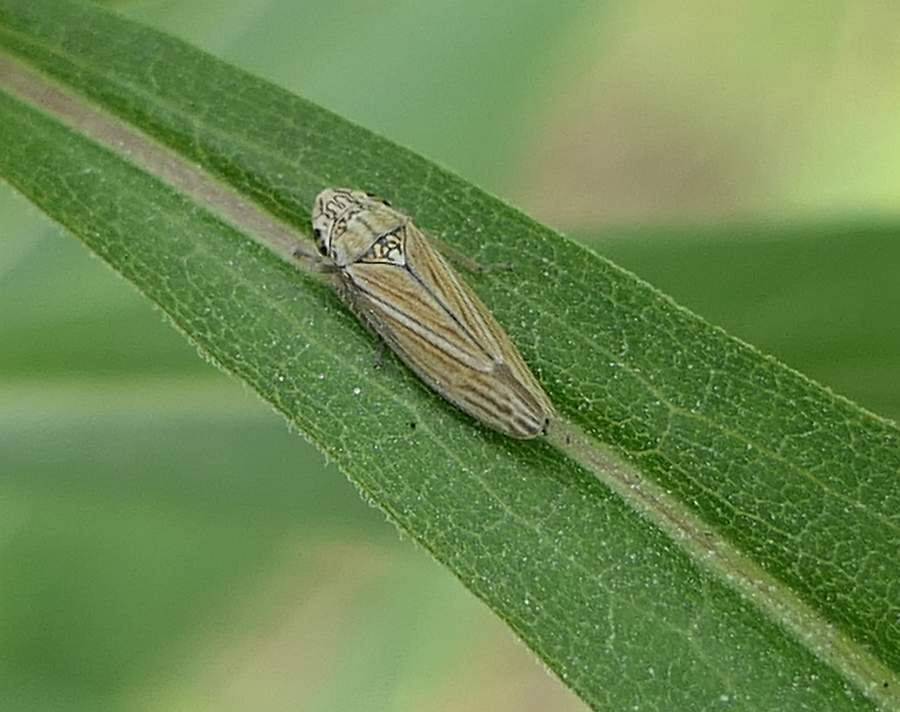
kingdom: Animalia
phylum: Arthropoda
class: Insecta
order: Hemiptera
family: Cicadellidae
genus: Neokolla
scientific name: Neokolla hieroglyphica
